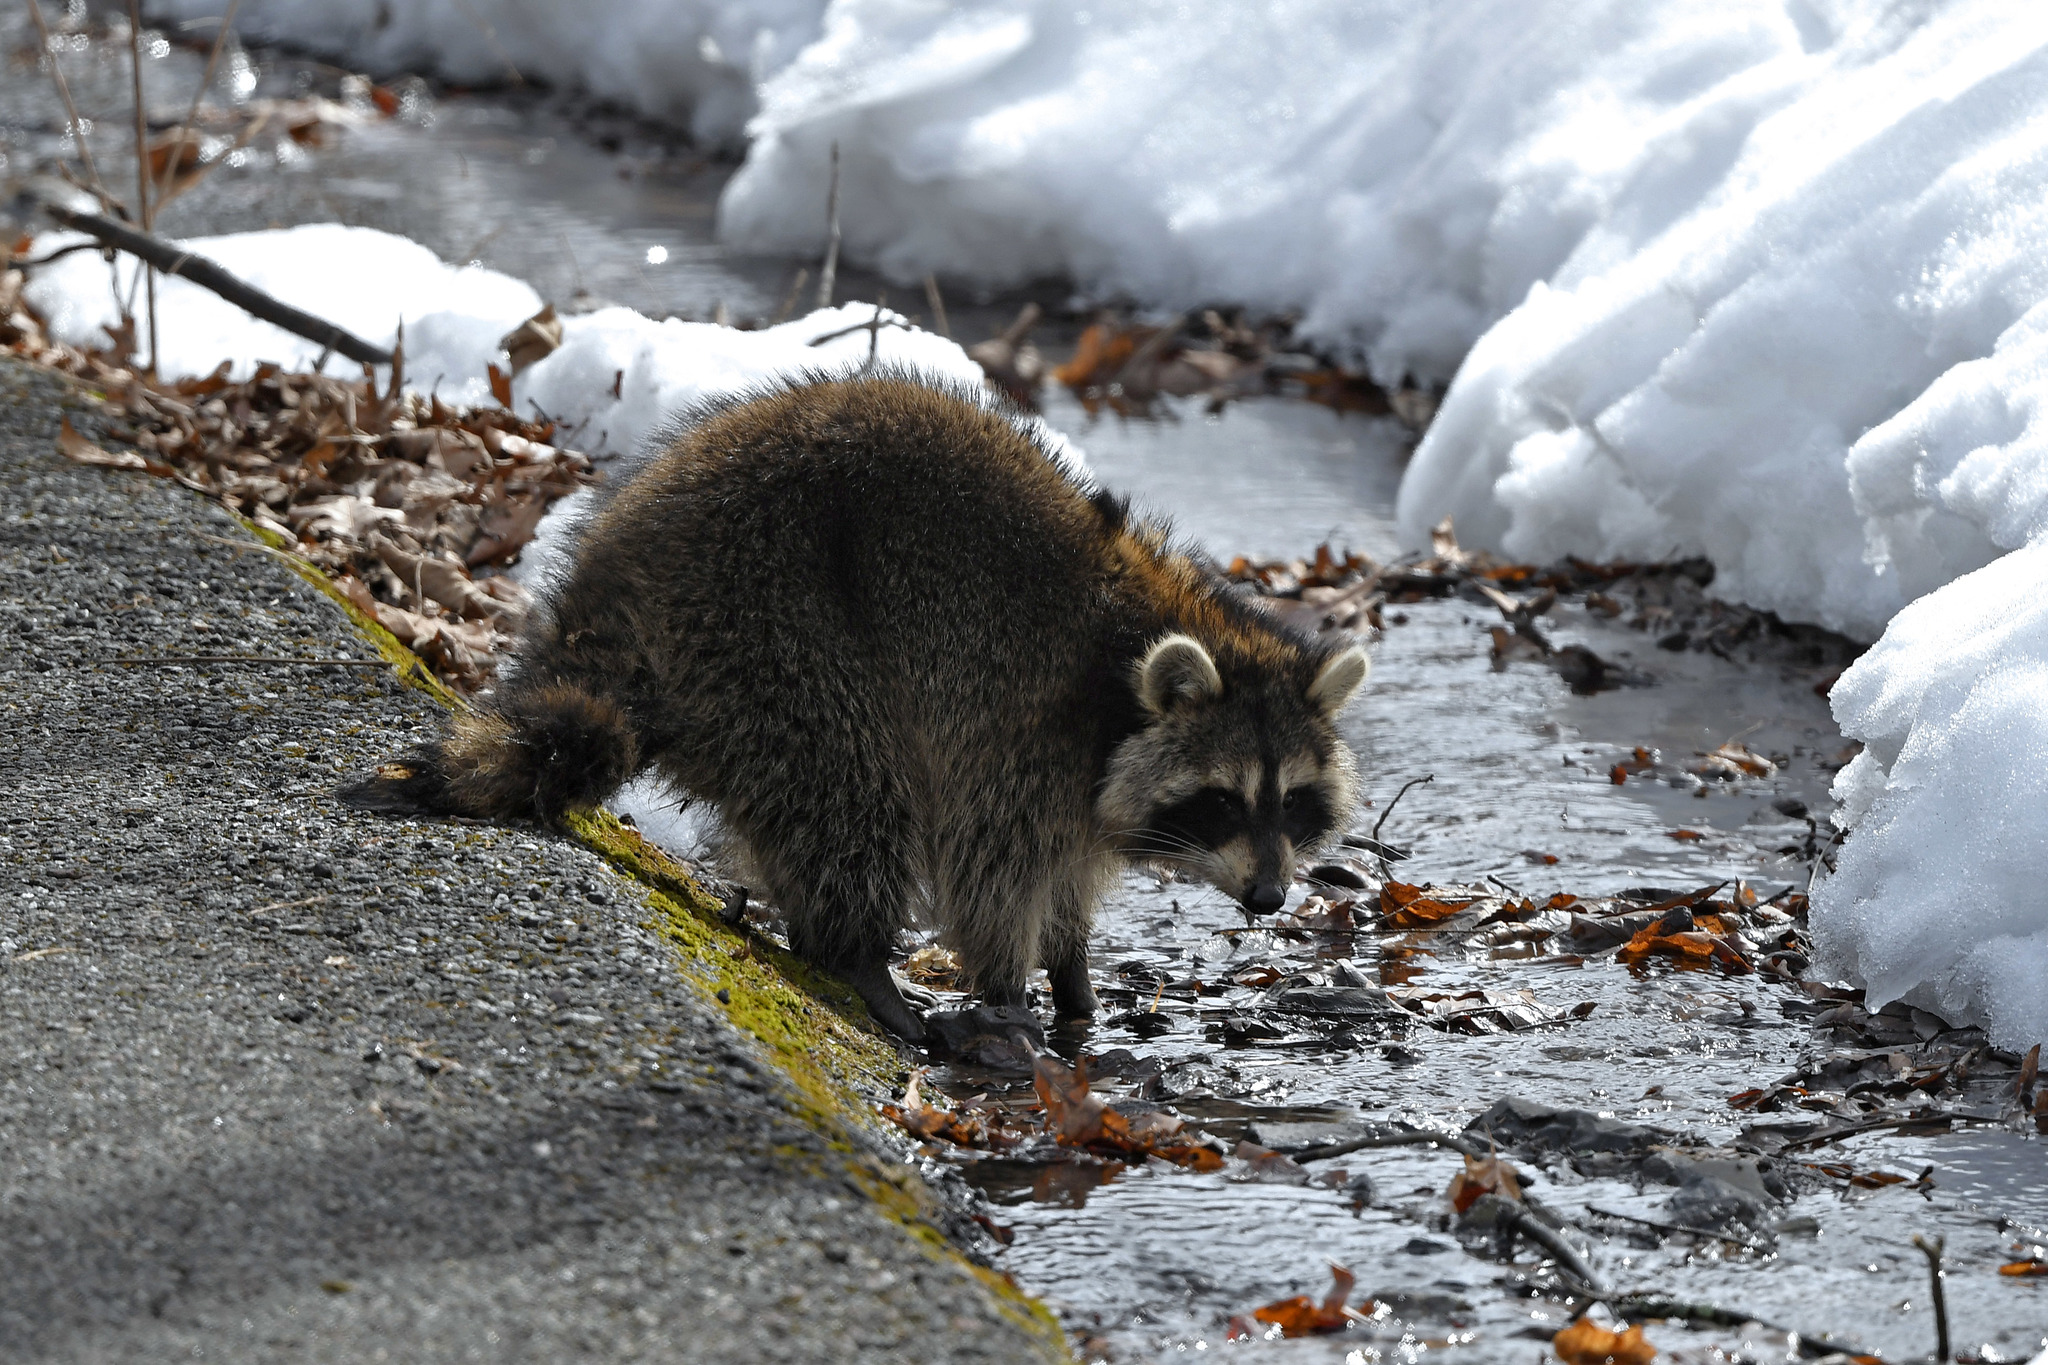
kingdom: Animalia
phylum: Chordata
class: Mammalia
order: Carnivora
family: Procyonidae
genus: Procyon
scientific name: Procyon lotor
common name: Raccoon
